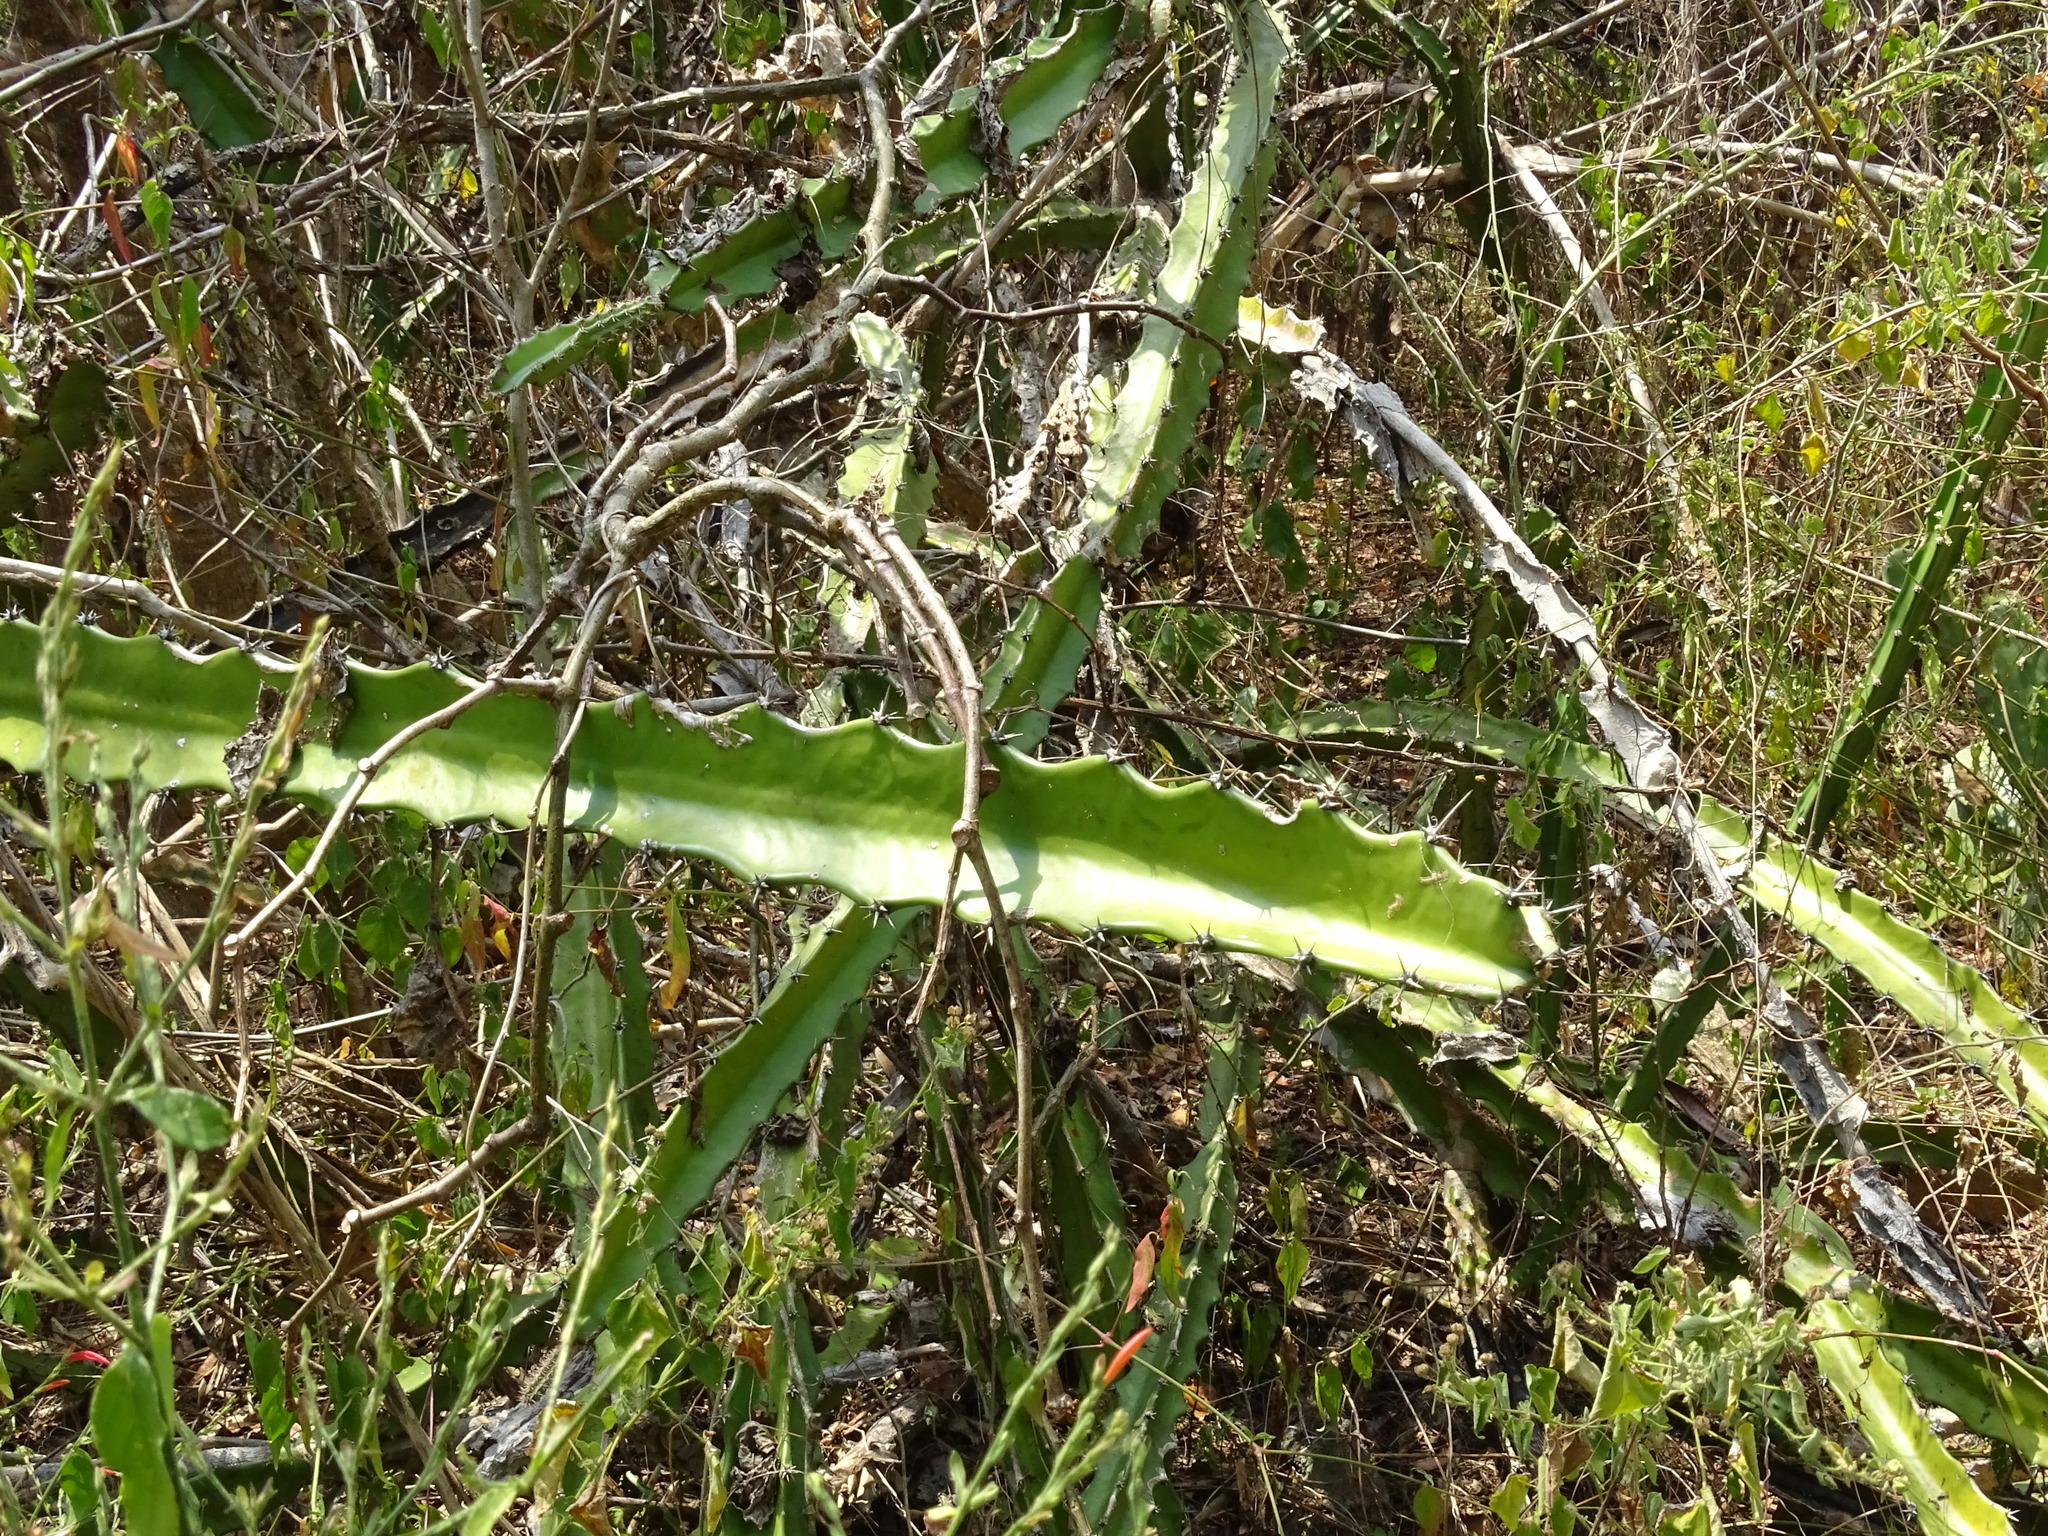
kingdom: Plantae
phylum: Tracheophyta
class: Magnoliopsida
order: Caryophyllales
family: Cactaceae
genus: Acanthocereus
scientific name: Acanthocereus tetragonus
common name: Triangle cactus
